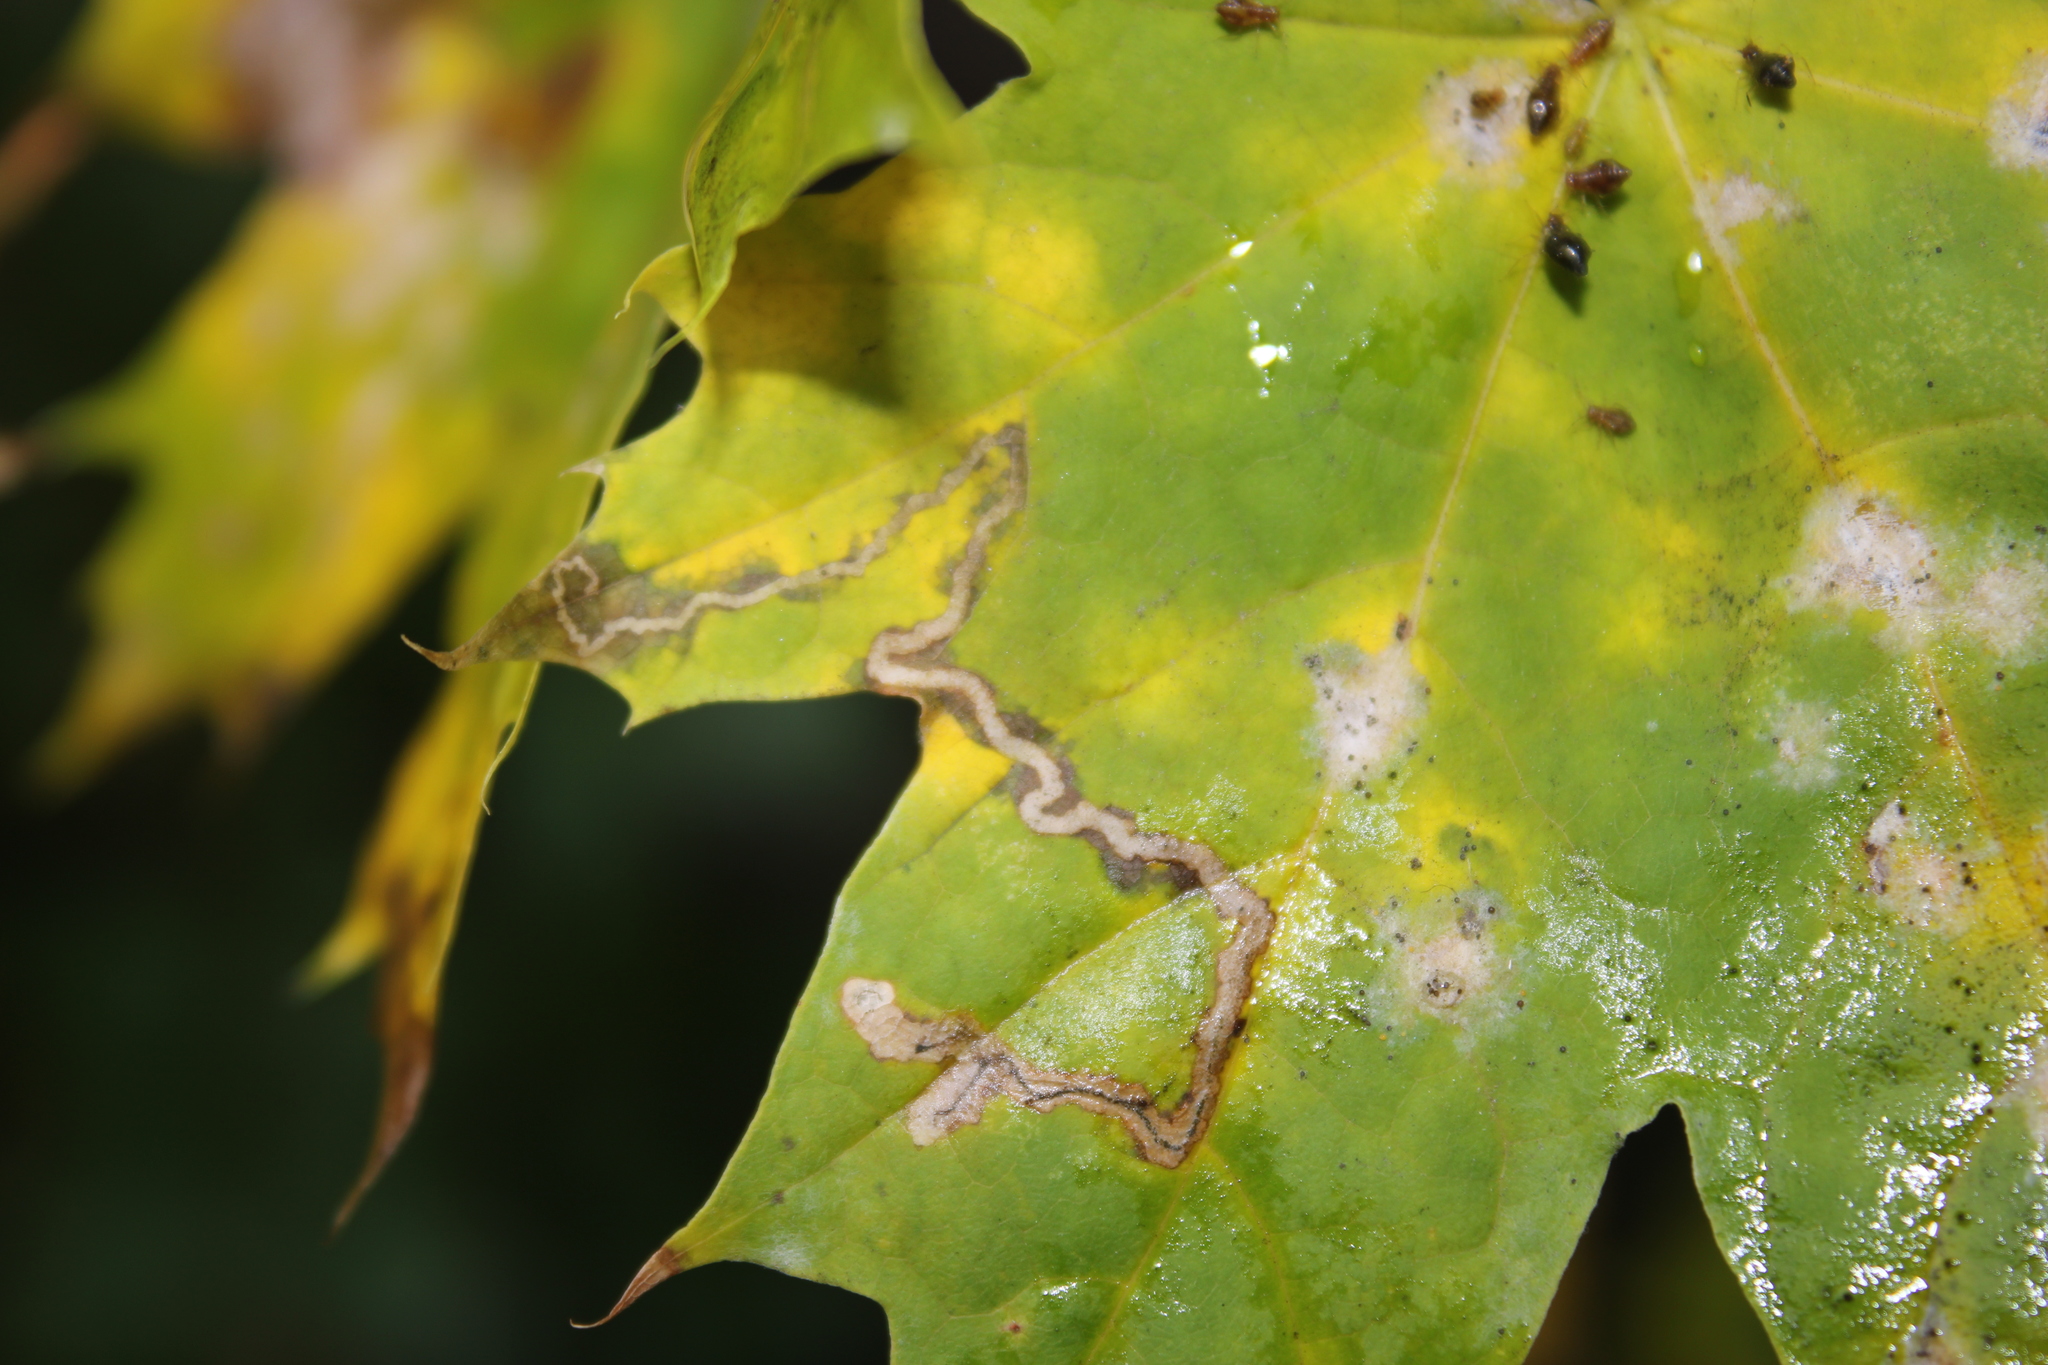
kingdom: Animalia
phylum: Arthropoda
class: Insecta
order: Lepidoptera
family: Nepticulidae
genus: Stigmella
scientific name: Stigmella aceris
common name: Scarce maple pigmy
